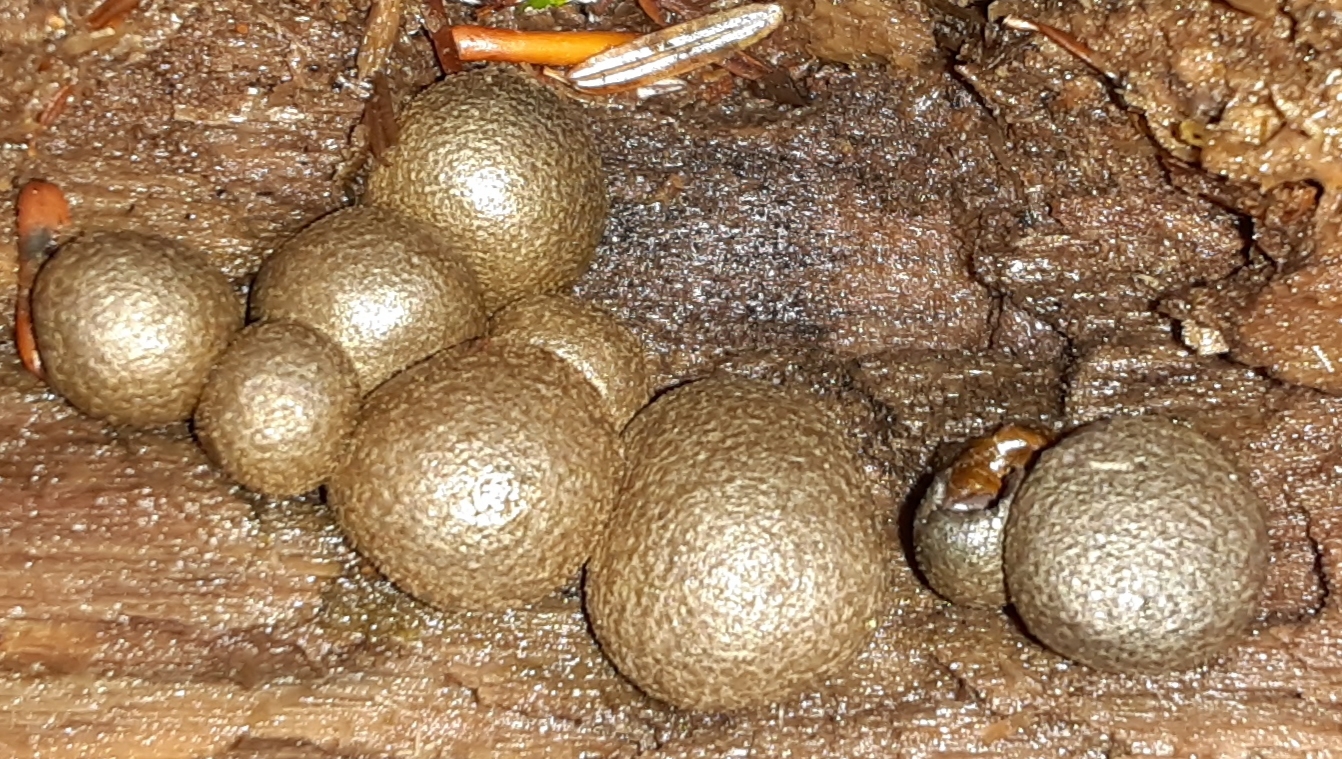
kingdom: Protozoa
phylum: Mycetozoa
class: Myxomycetes
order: Cribrariales
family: Tubiferaceae
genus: Lycogala
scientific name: Lycogala epidendrum
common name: Wolf's milk
